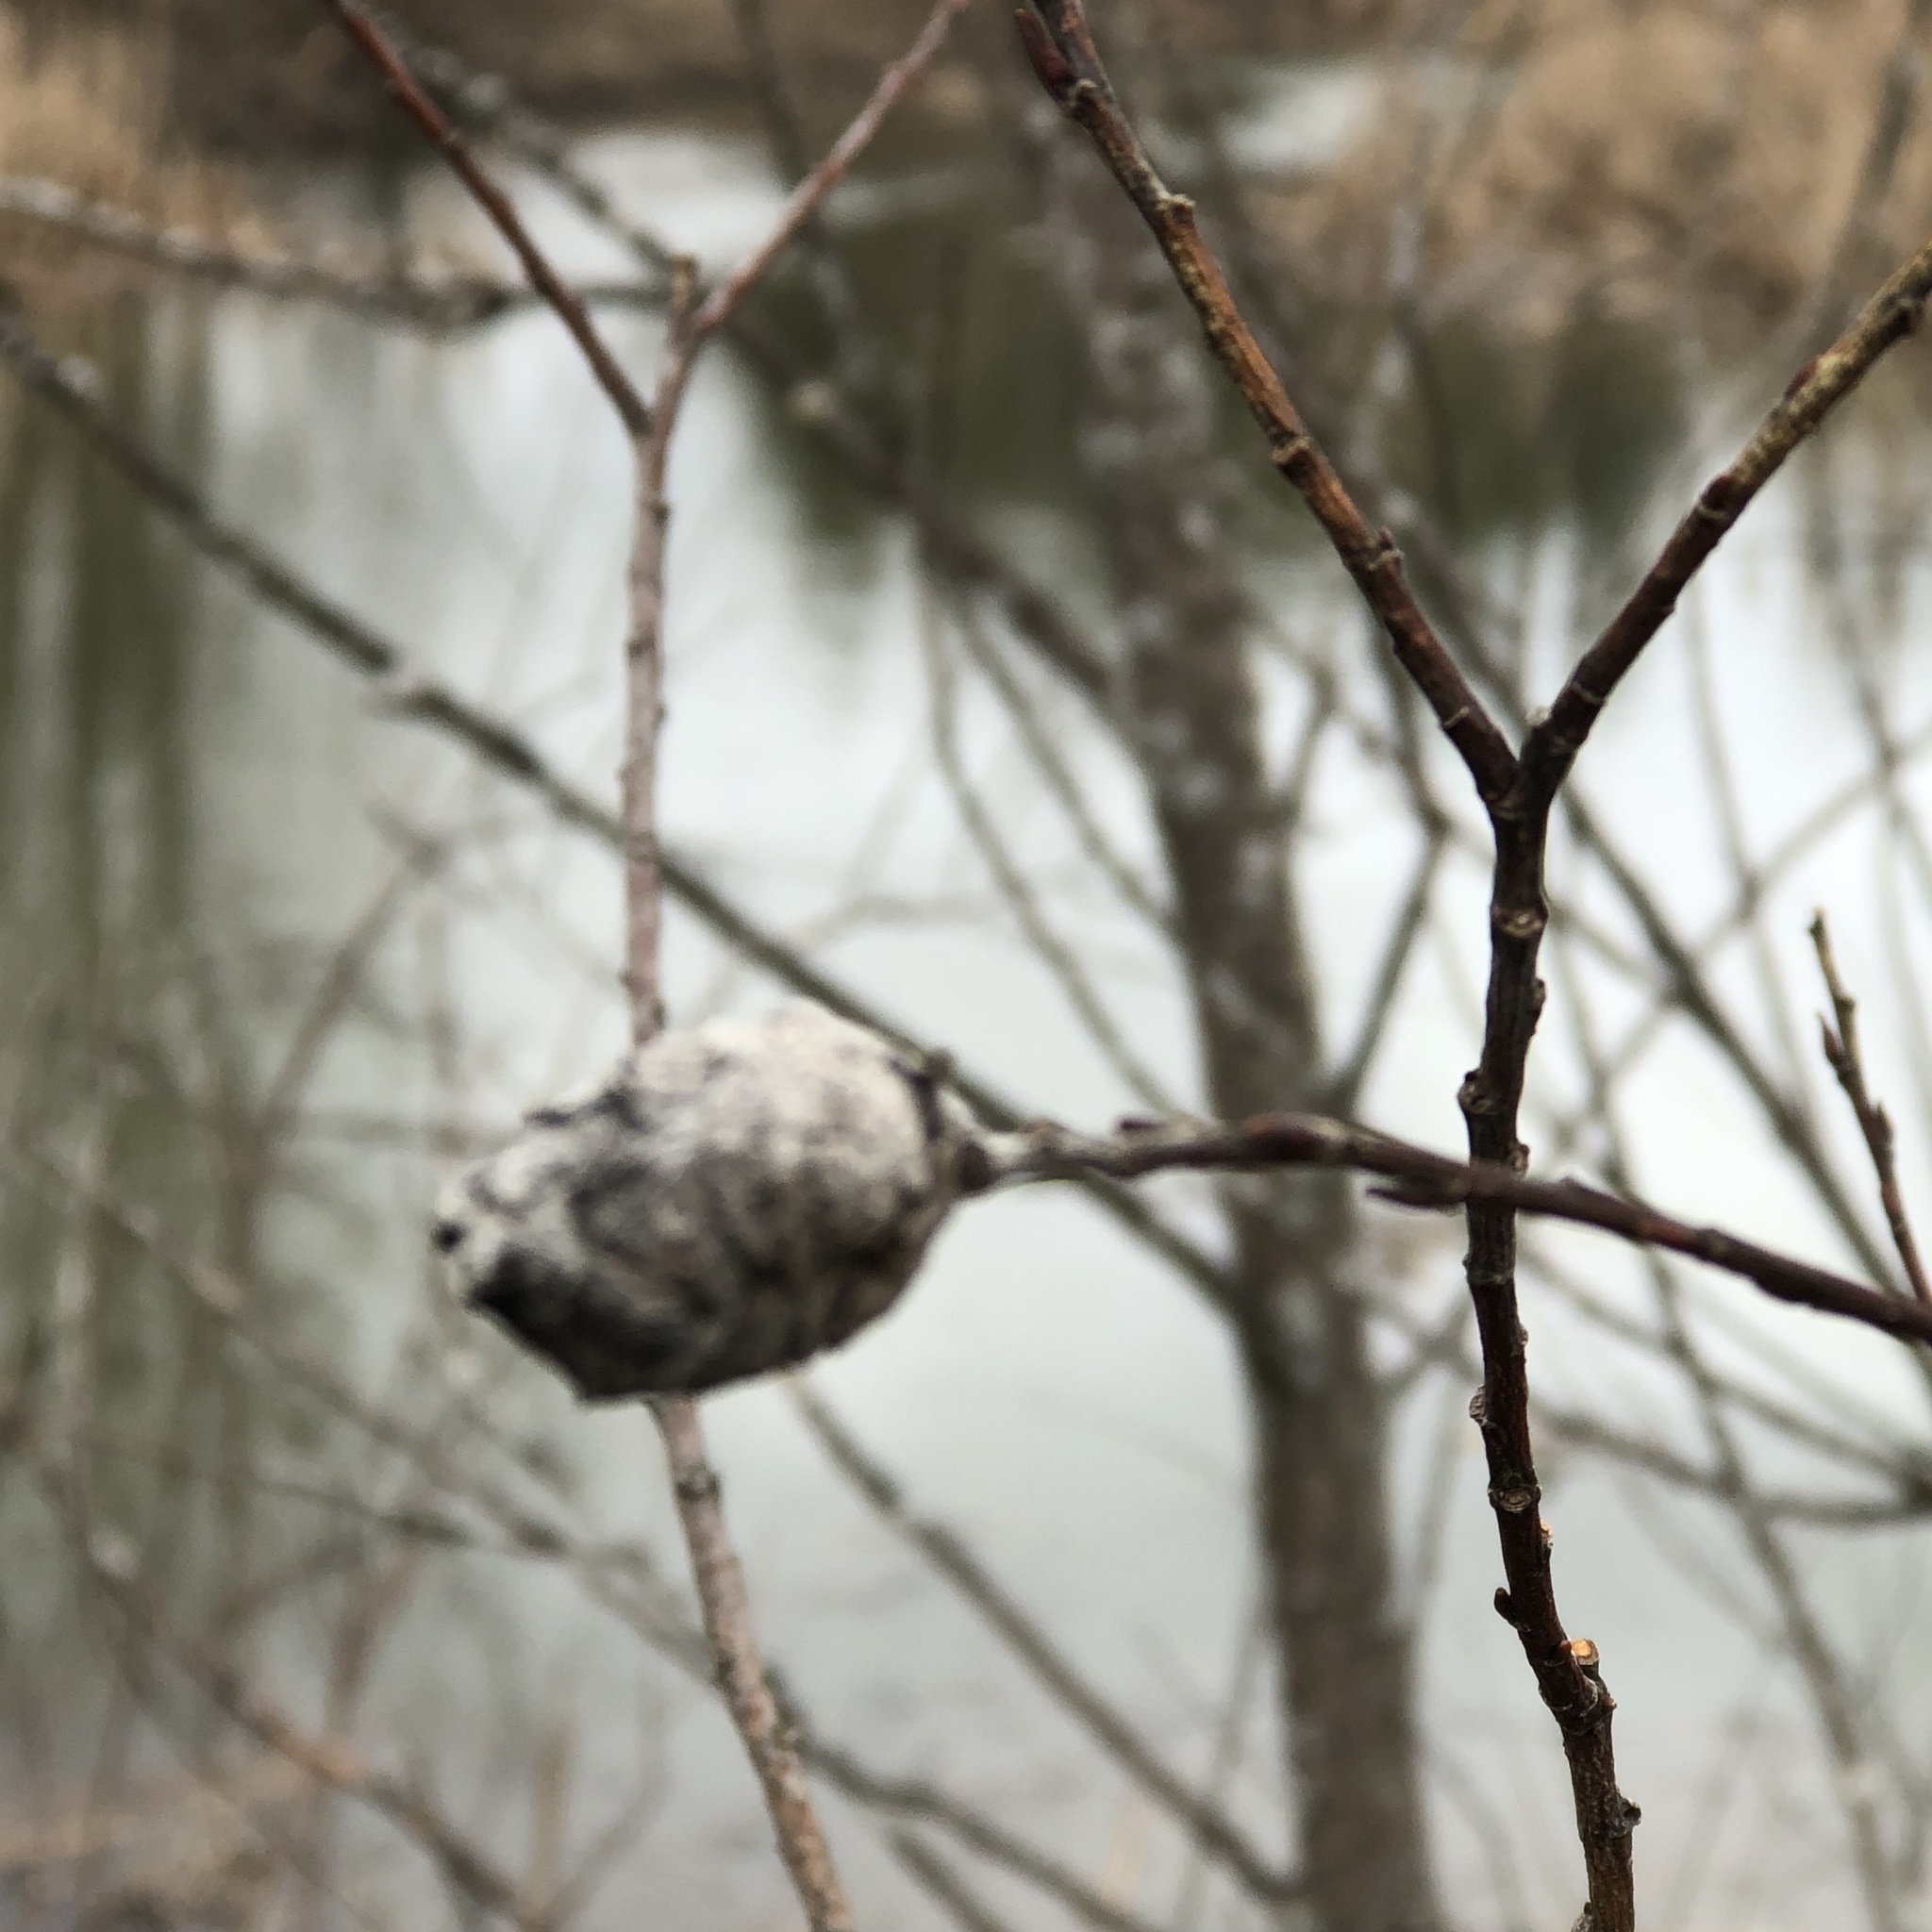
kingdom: Animalia
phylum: Arthropoda
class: Insecta
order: Diptera
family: Cecidomyiidae
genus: Rabdophaga
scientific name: Rabdophaga strobiloides
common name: Willow pinecone gall midge
